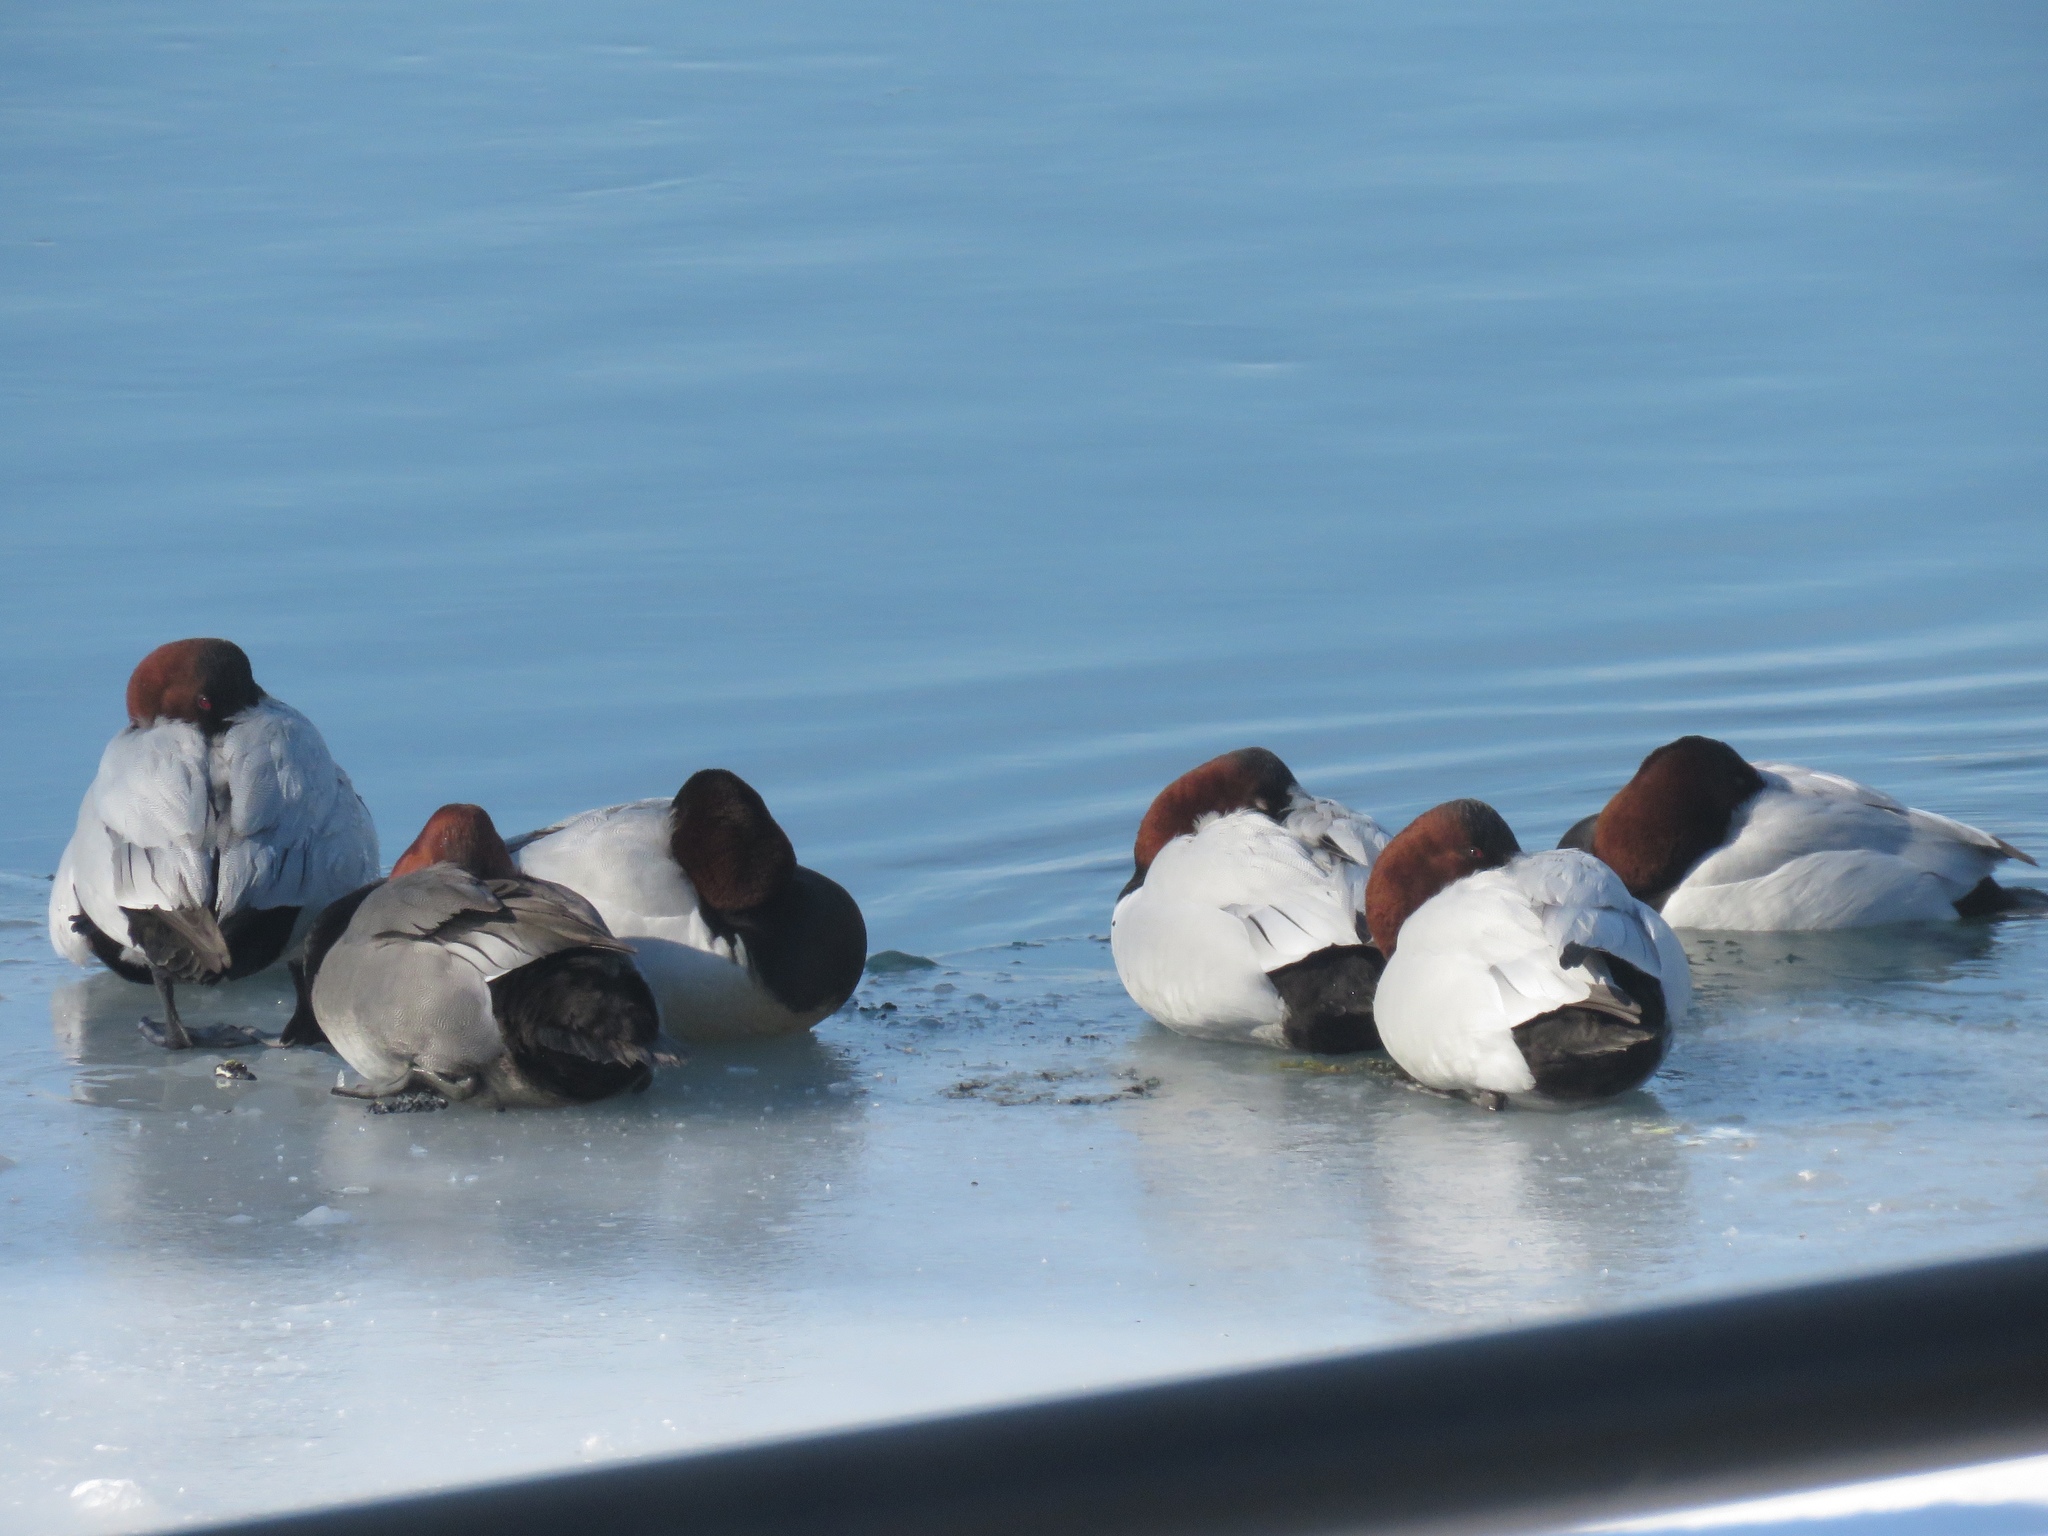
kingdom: Animalia
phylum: Chordata
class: Aves
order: Anseriformes
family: Anatidae
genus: Aythya
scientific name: Aythya valisineria
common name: Canvasback
